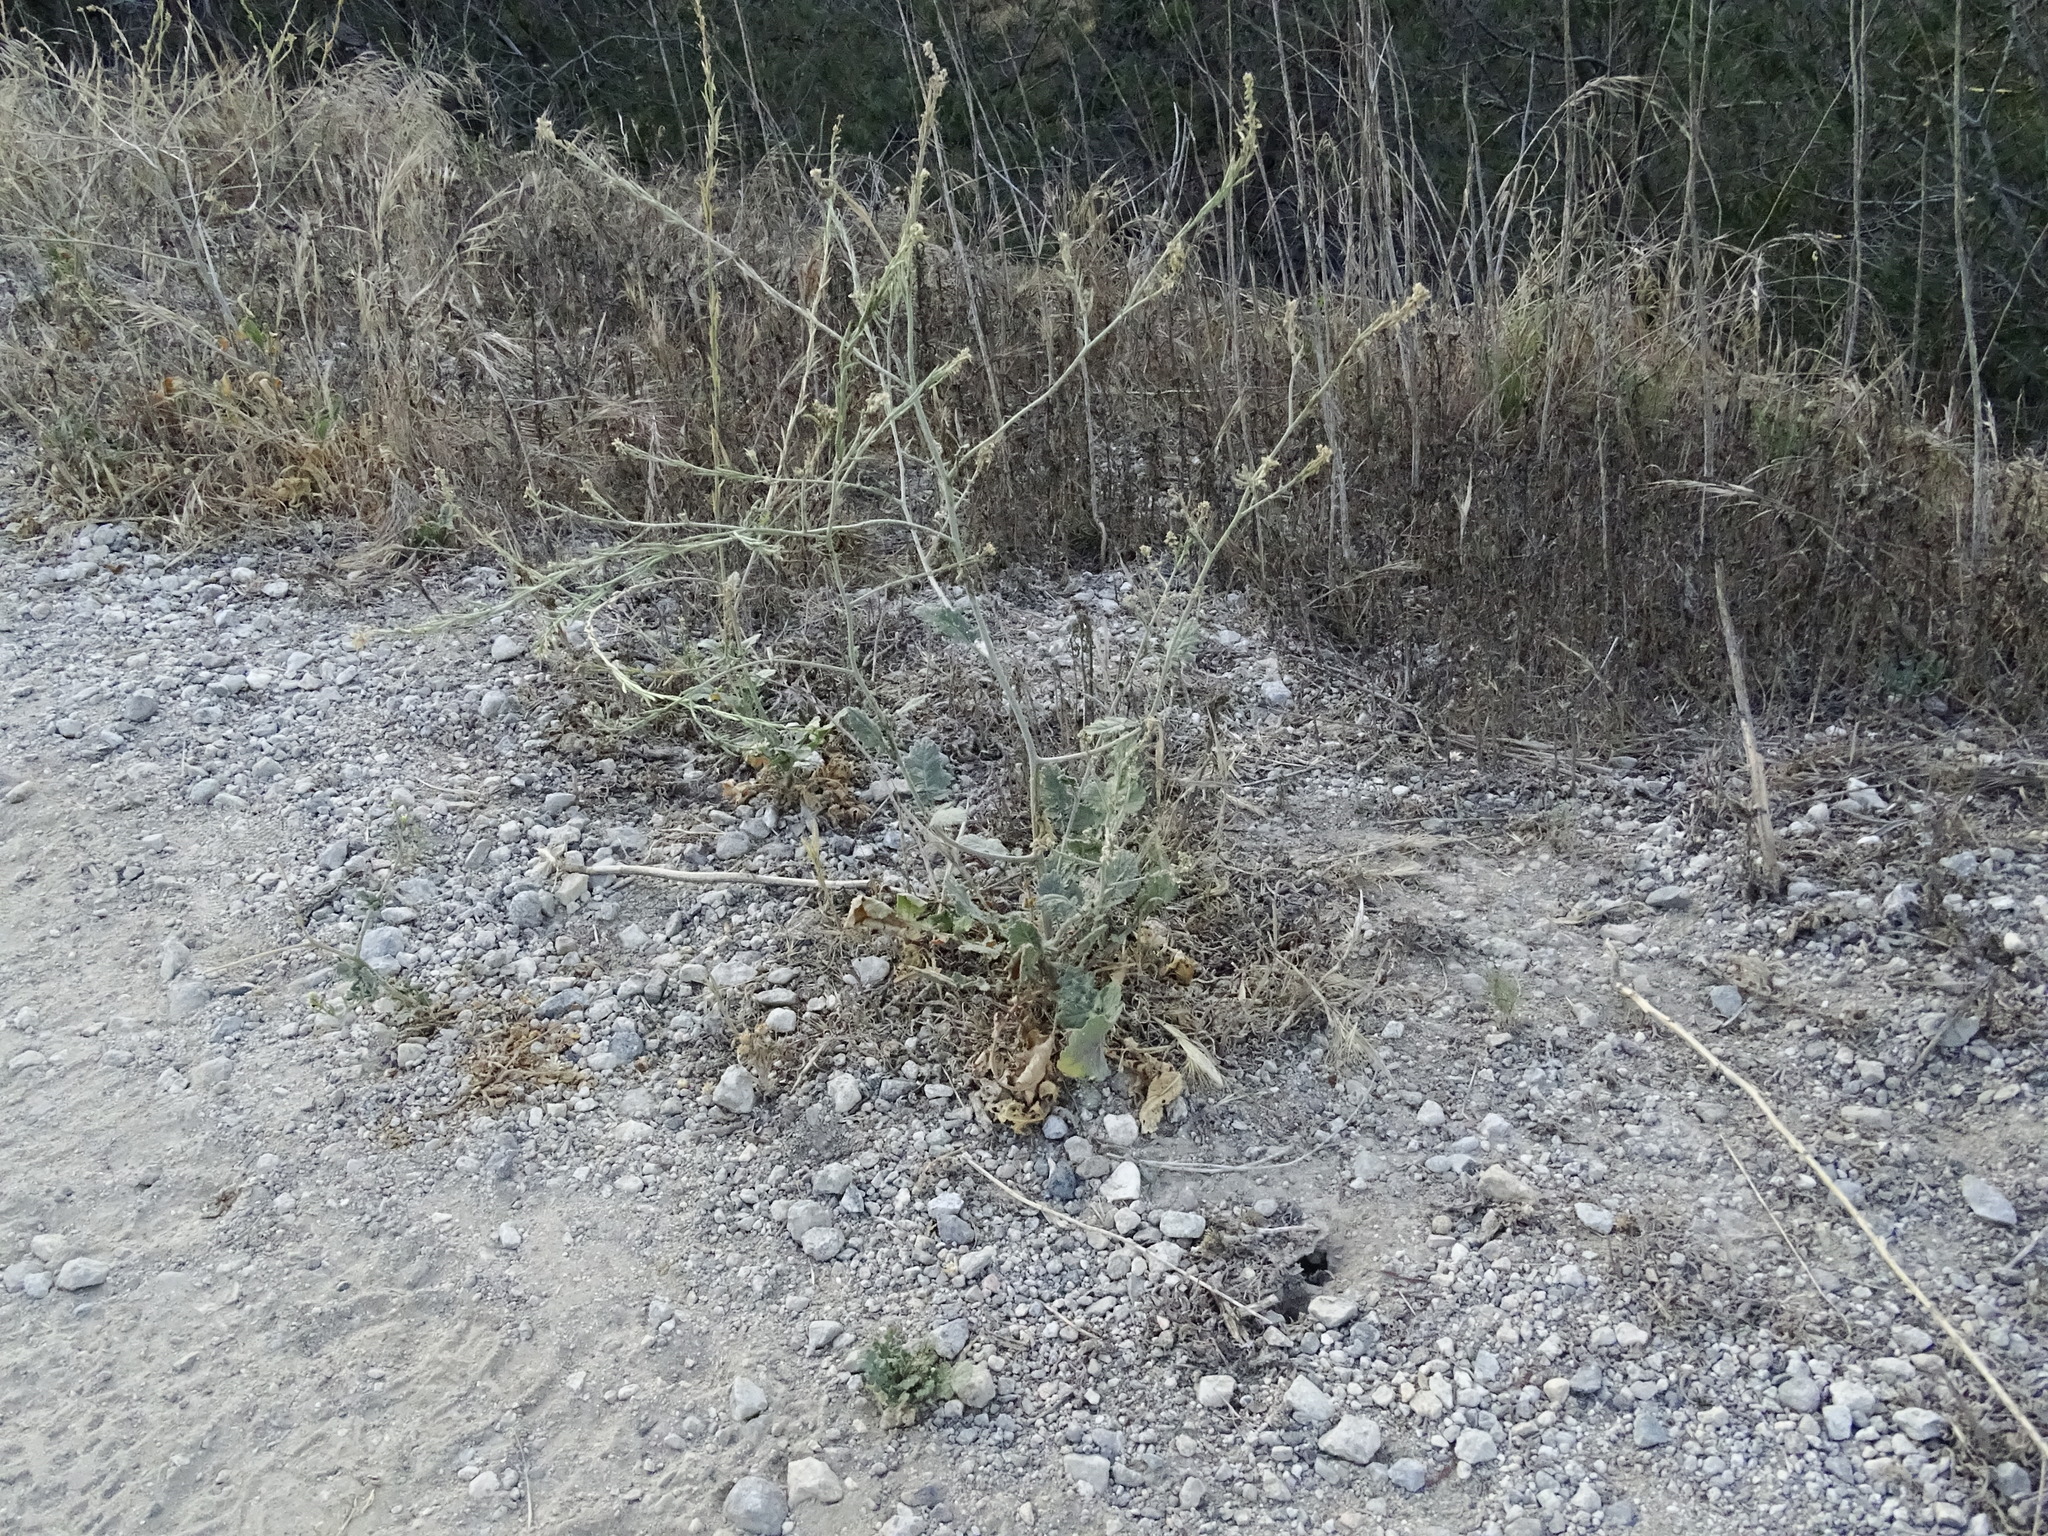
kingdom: Plantae
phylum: Tracheophyta
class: Magnoliopsida
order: Brassicales
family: Brassicaceae
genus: Hirschfeldia
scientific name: Hirschfeldia incana
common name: Hoary mustard
